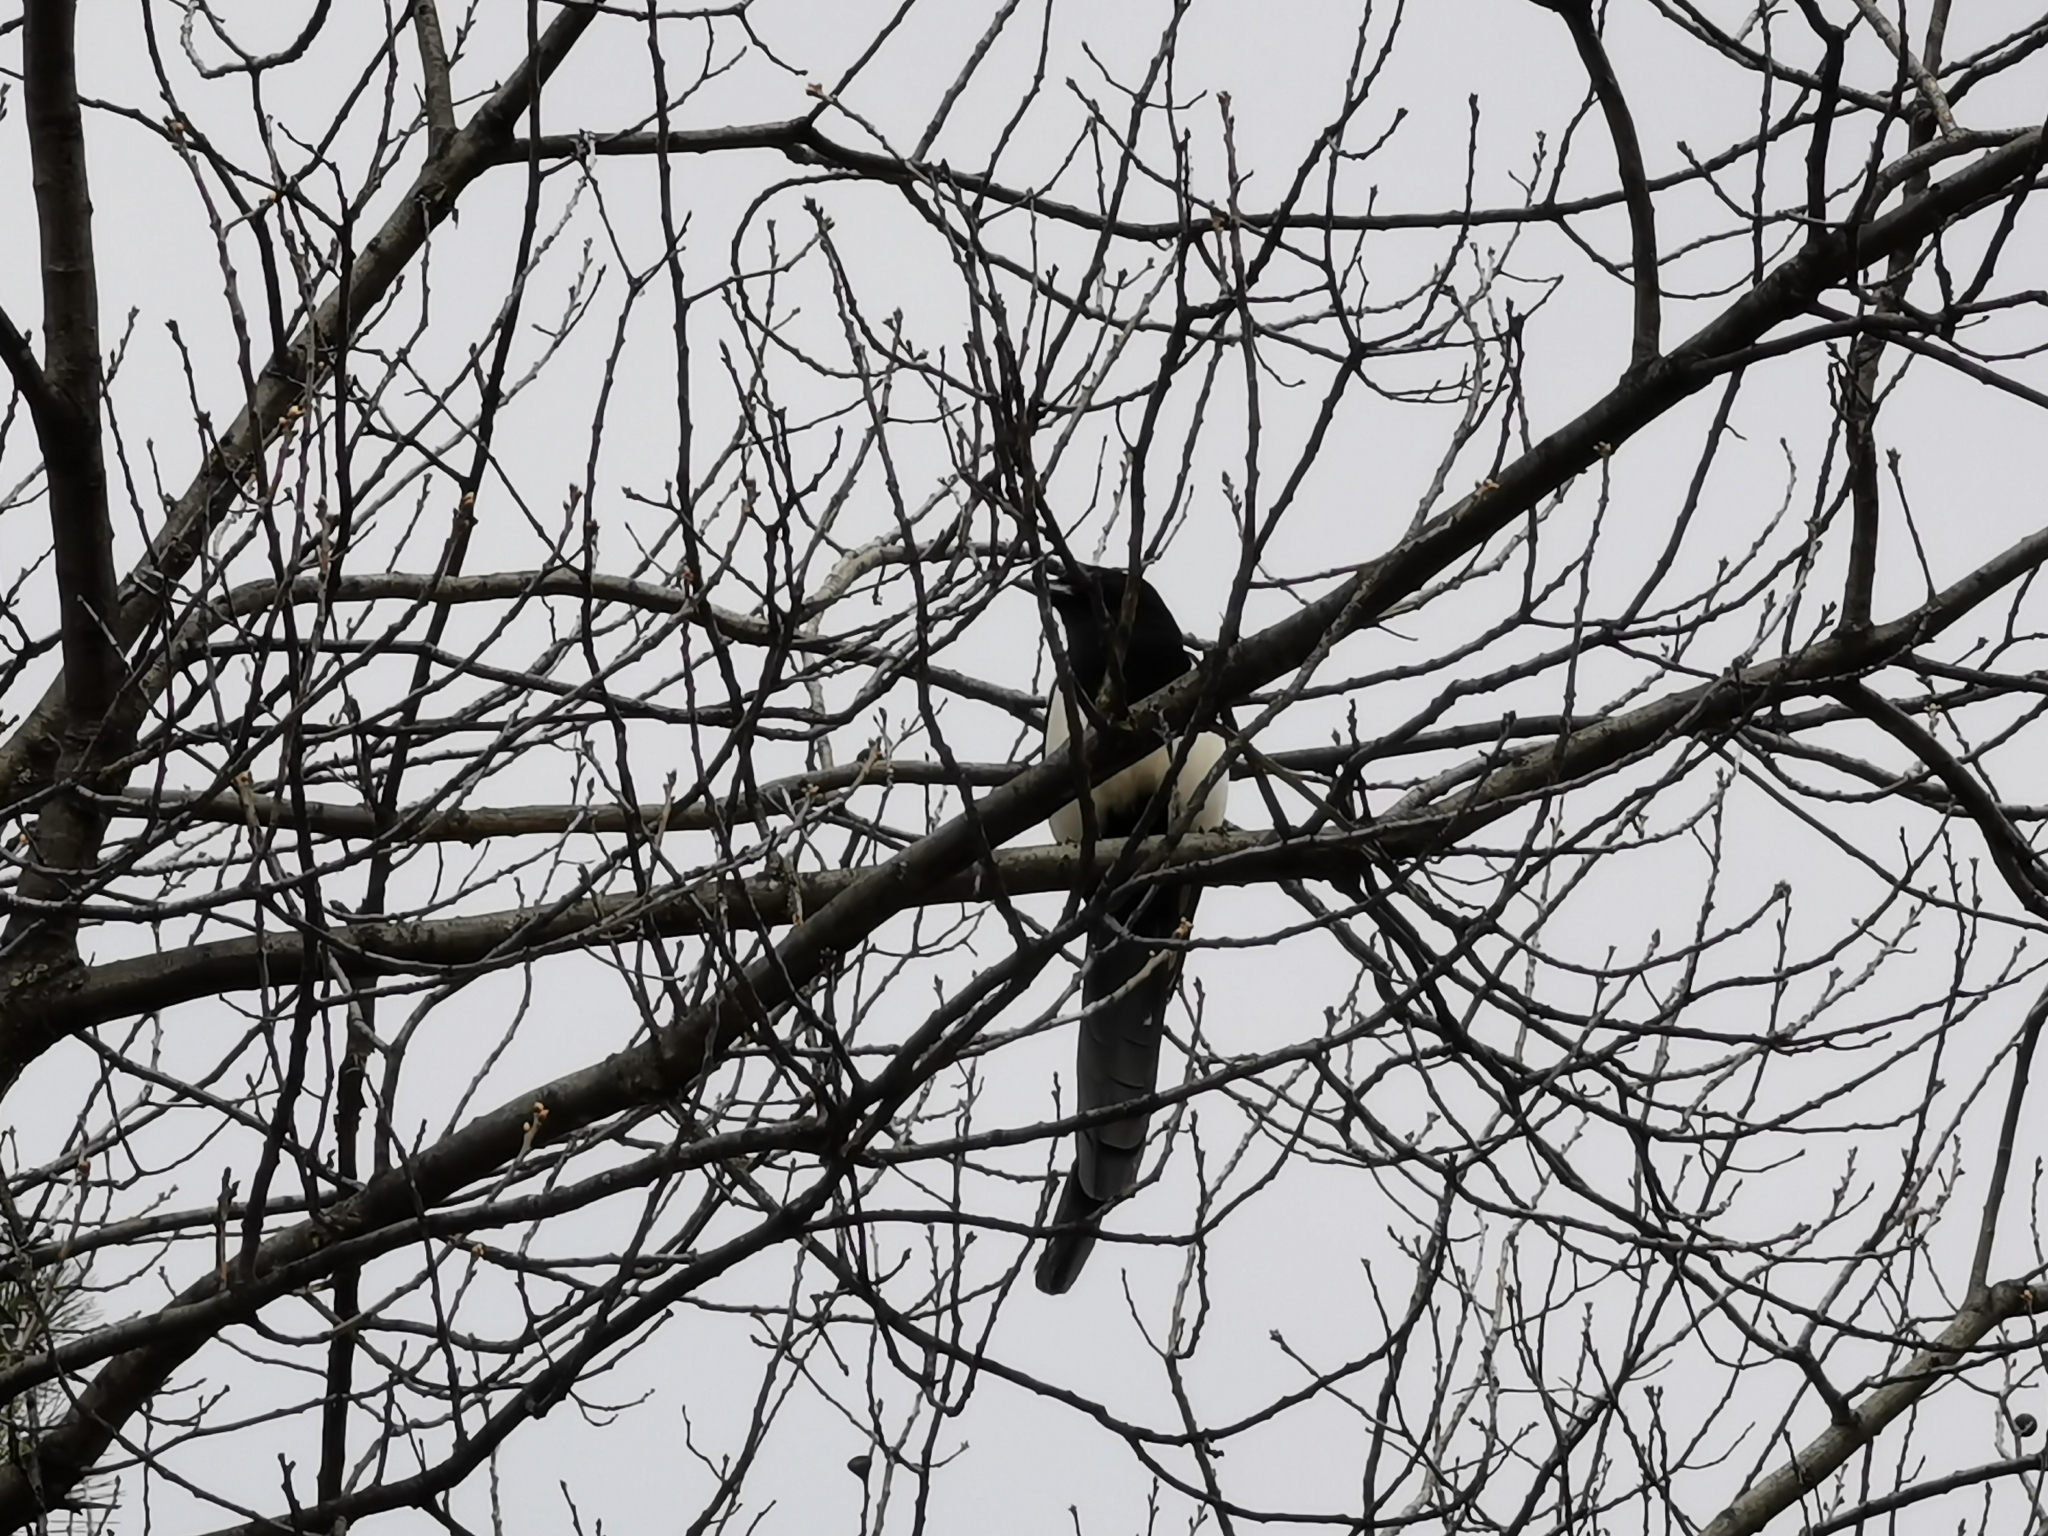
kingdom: Animalia
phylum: Chordata
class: Aves
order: Passeriformes
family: Corvidae
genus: Pica
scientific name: Pica hudsonia
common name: Black-billed magpie
